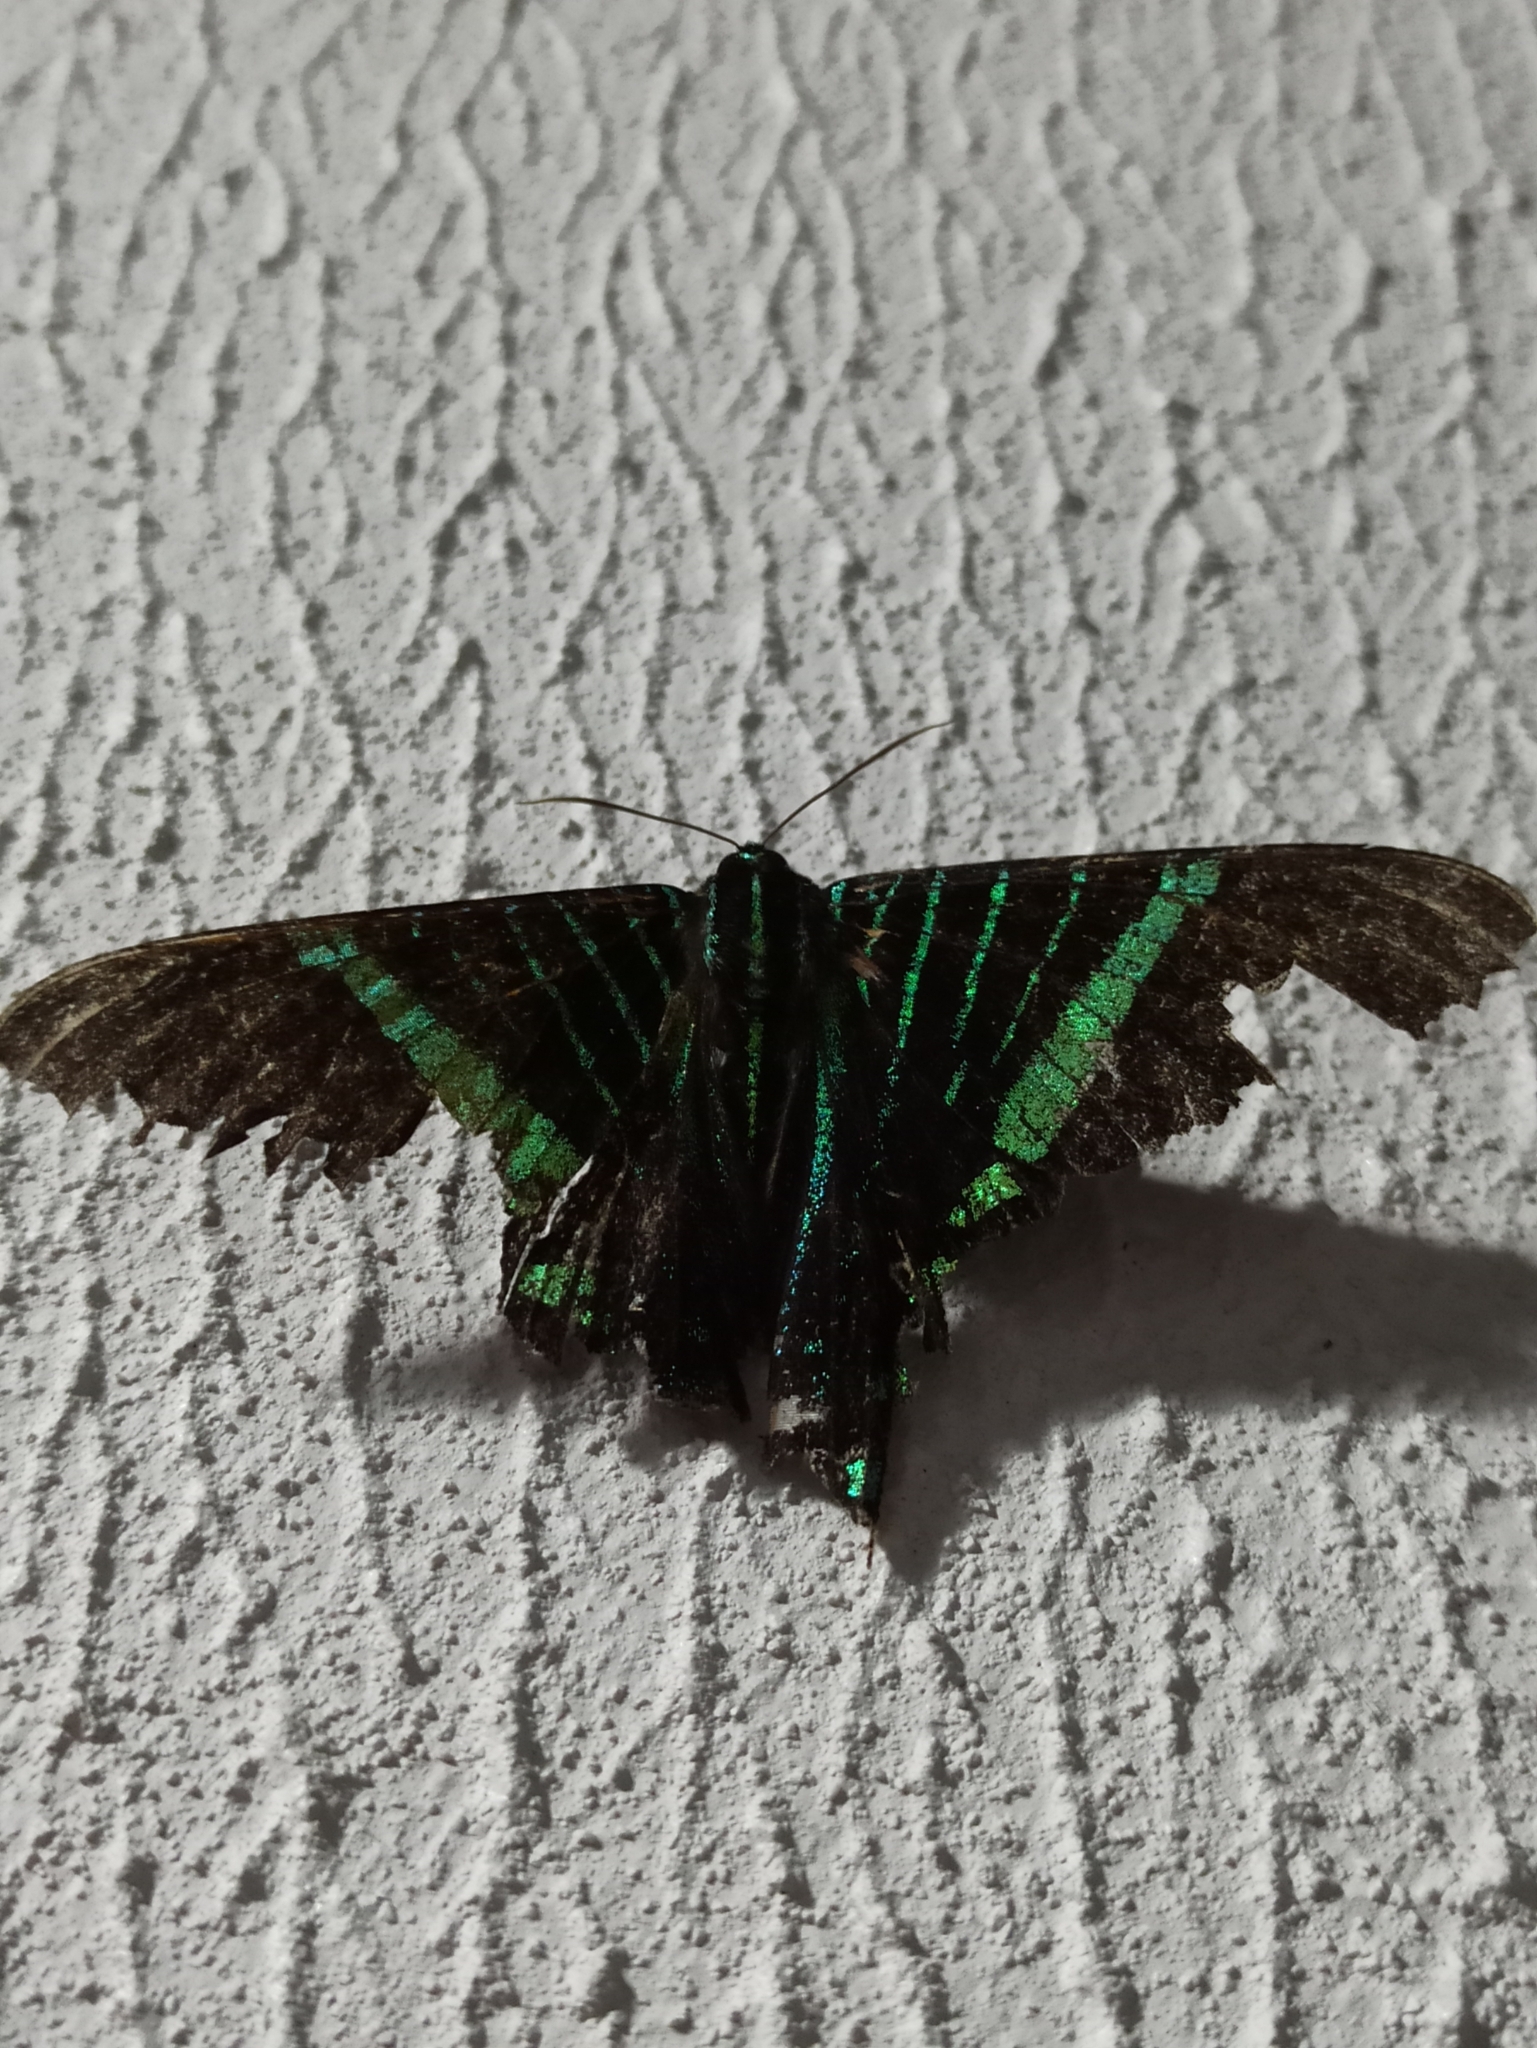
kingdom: Animalia
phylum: Arthropoda
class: Insecta
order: Lepidoptera
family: Uraniidae
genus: Urania
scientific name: Urania fulgens
